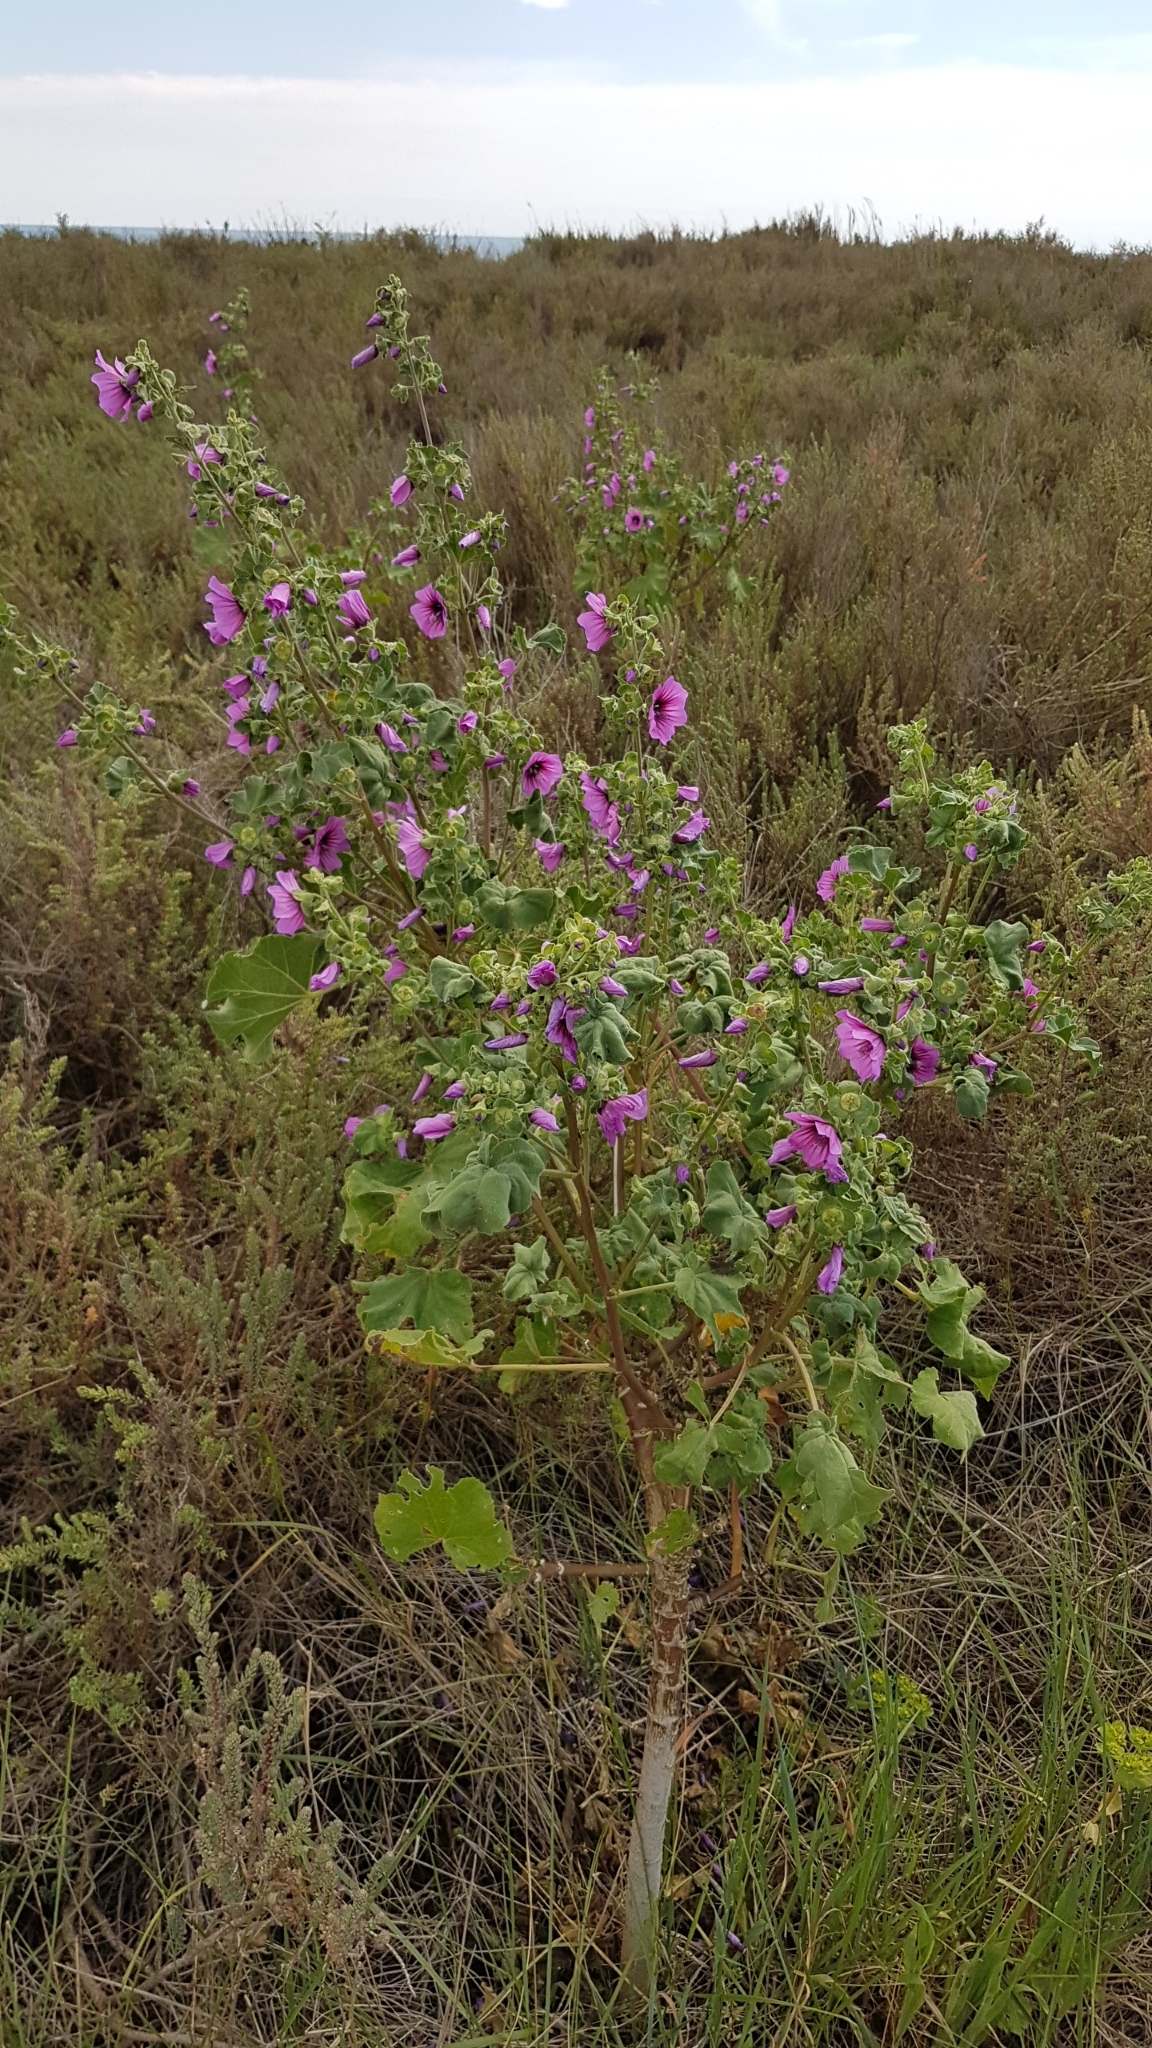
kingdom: Plantae
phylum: Tracheophyta
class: Magnoliopsida
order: Malvales
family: Malvaceae
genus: Malva
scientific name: Malva arborea
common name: Tree mallow
